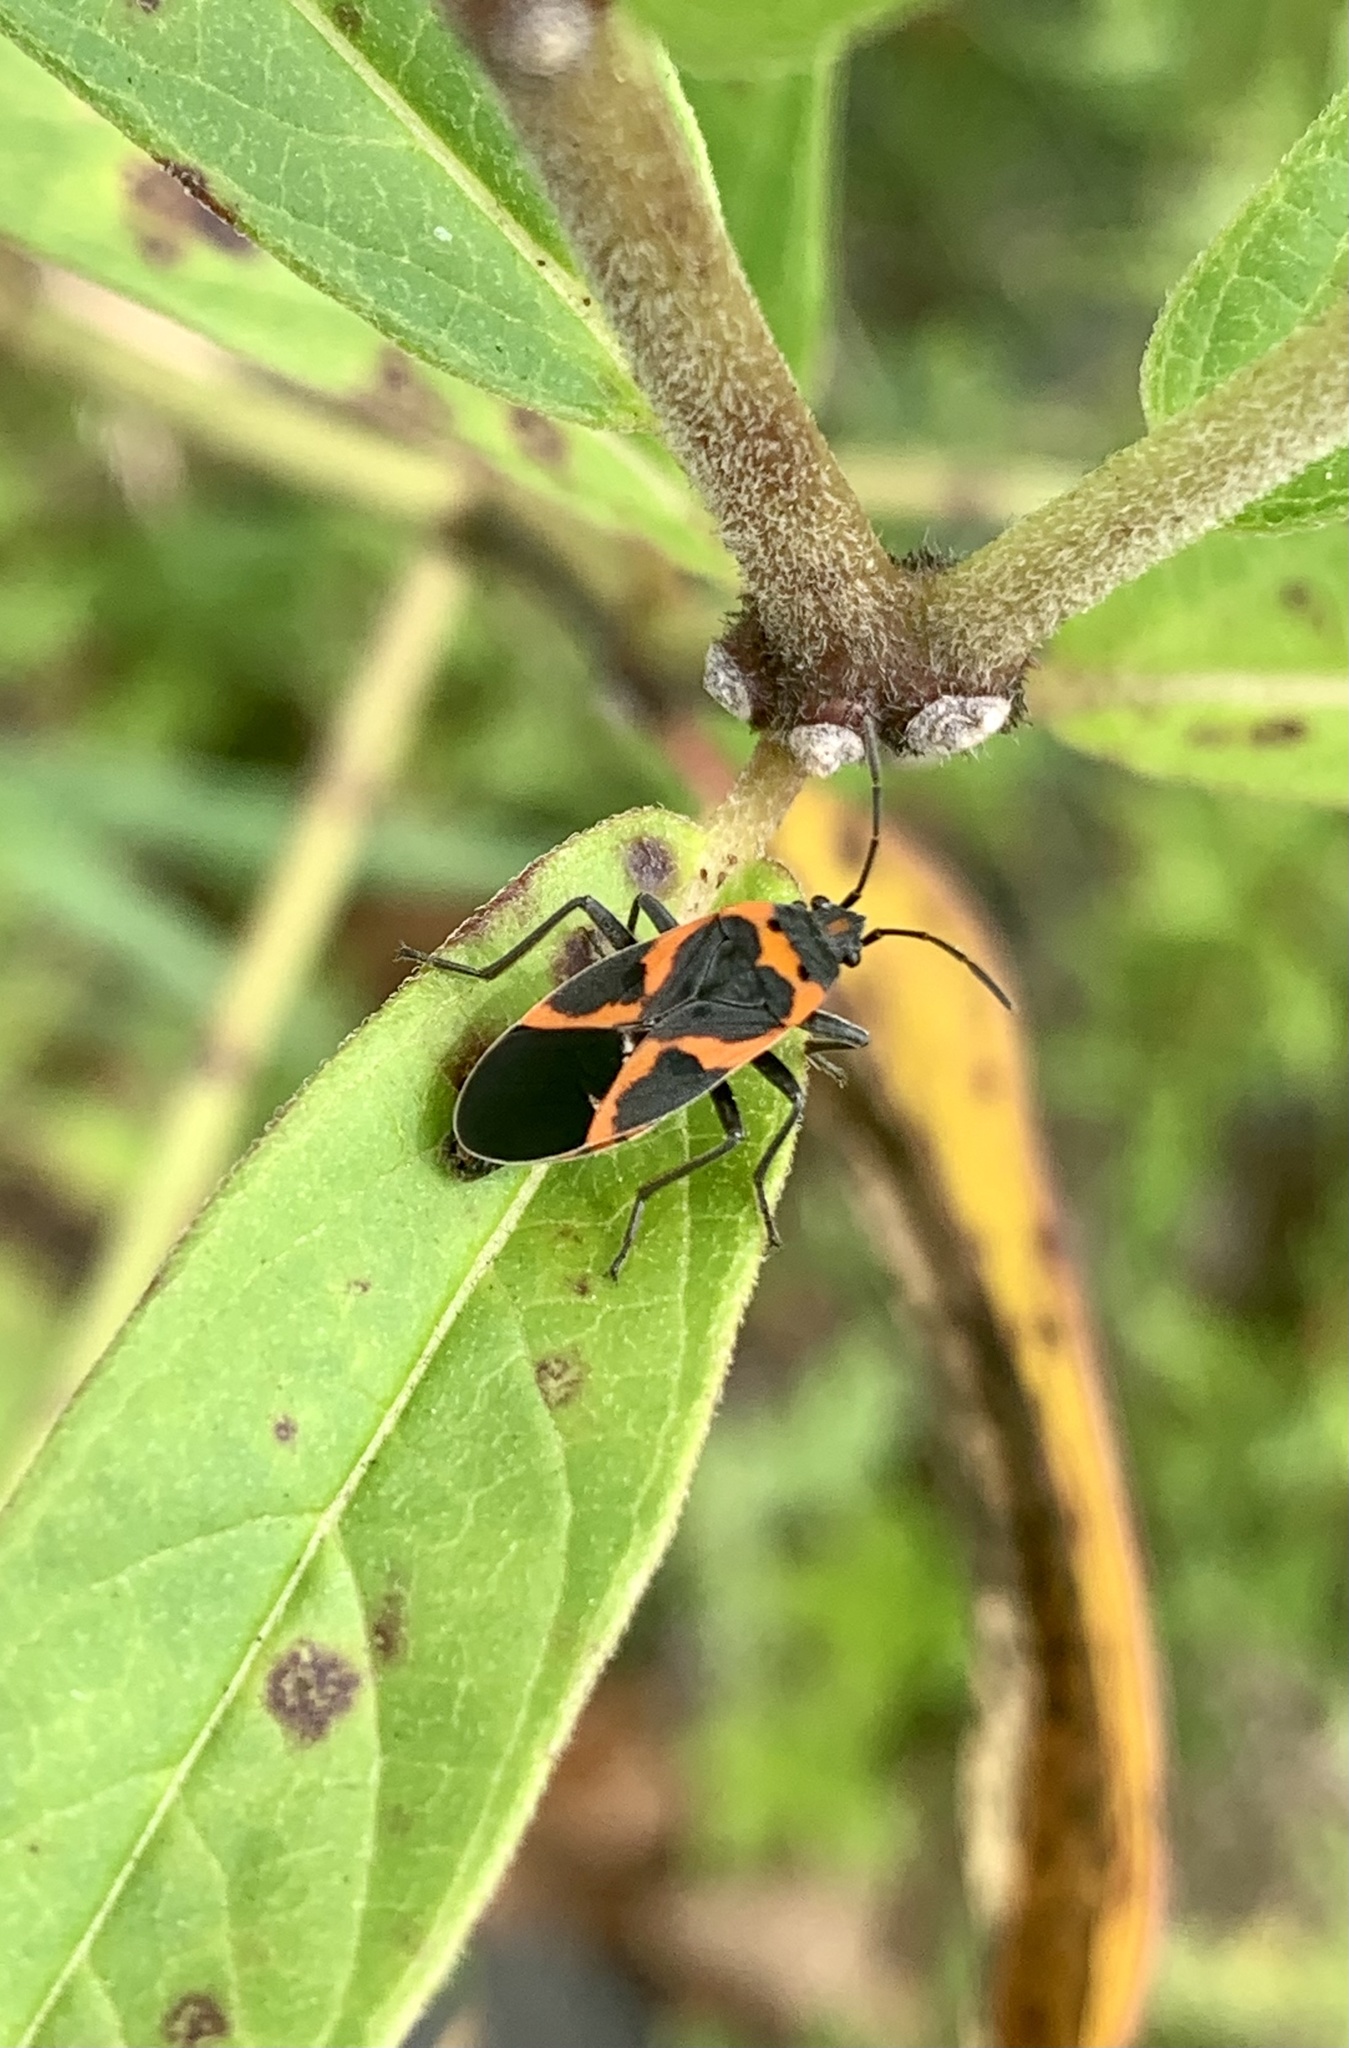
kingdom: Animalia
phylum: Arthropoda
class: Insecta
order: Hemiptera
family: Lygaeidae
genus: Lygaeus
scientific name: Lygaeus kalmii
